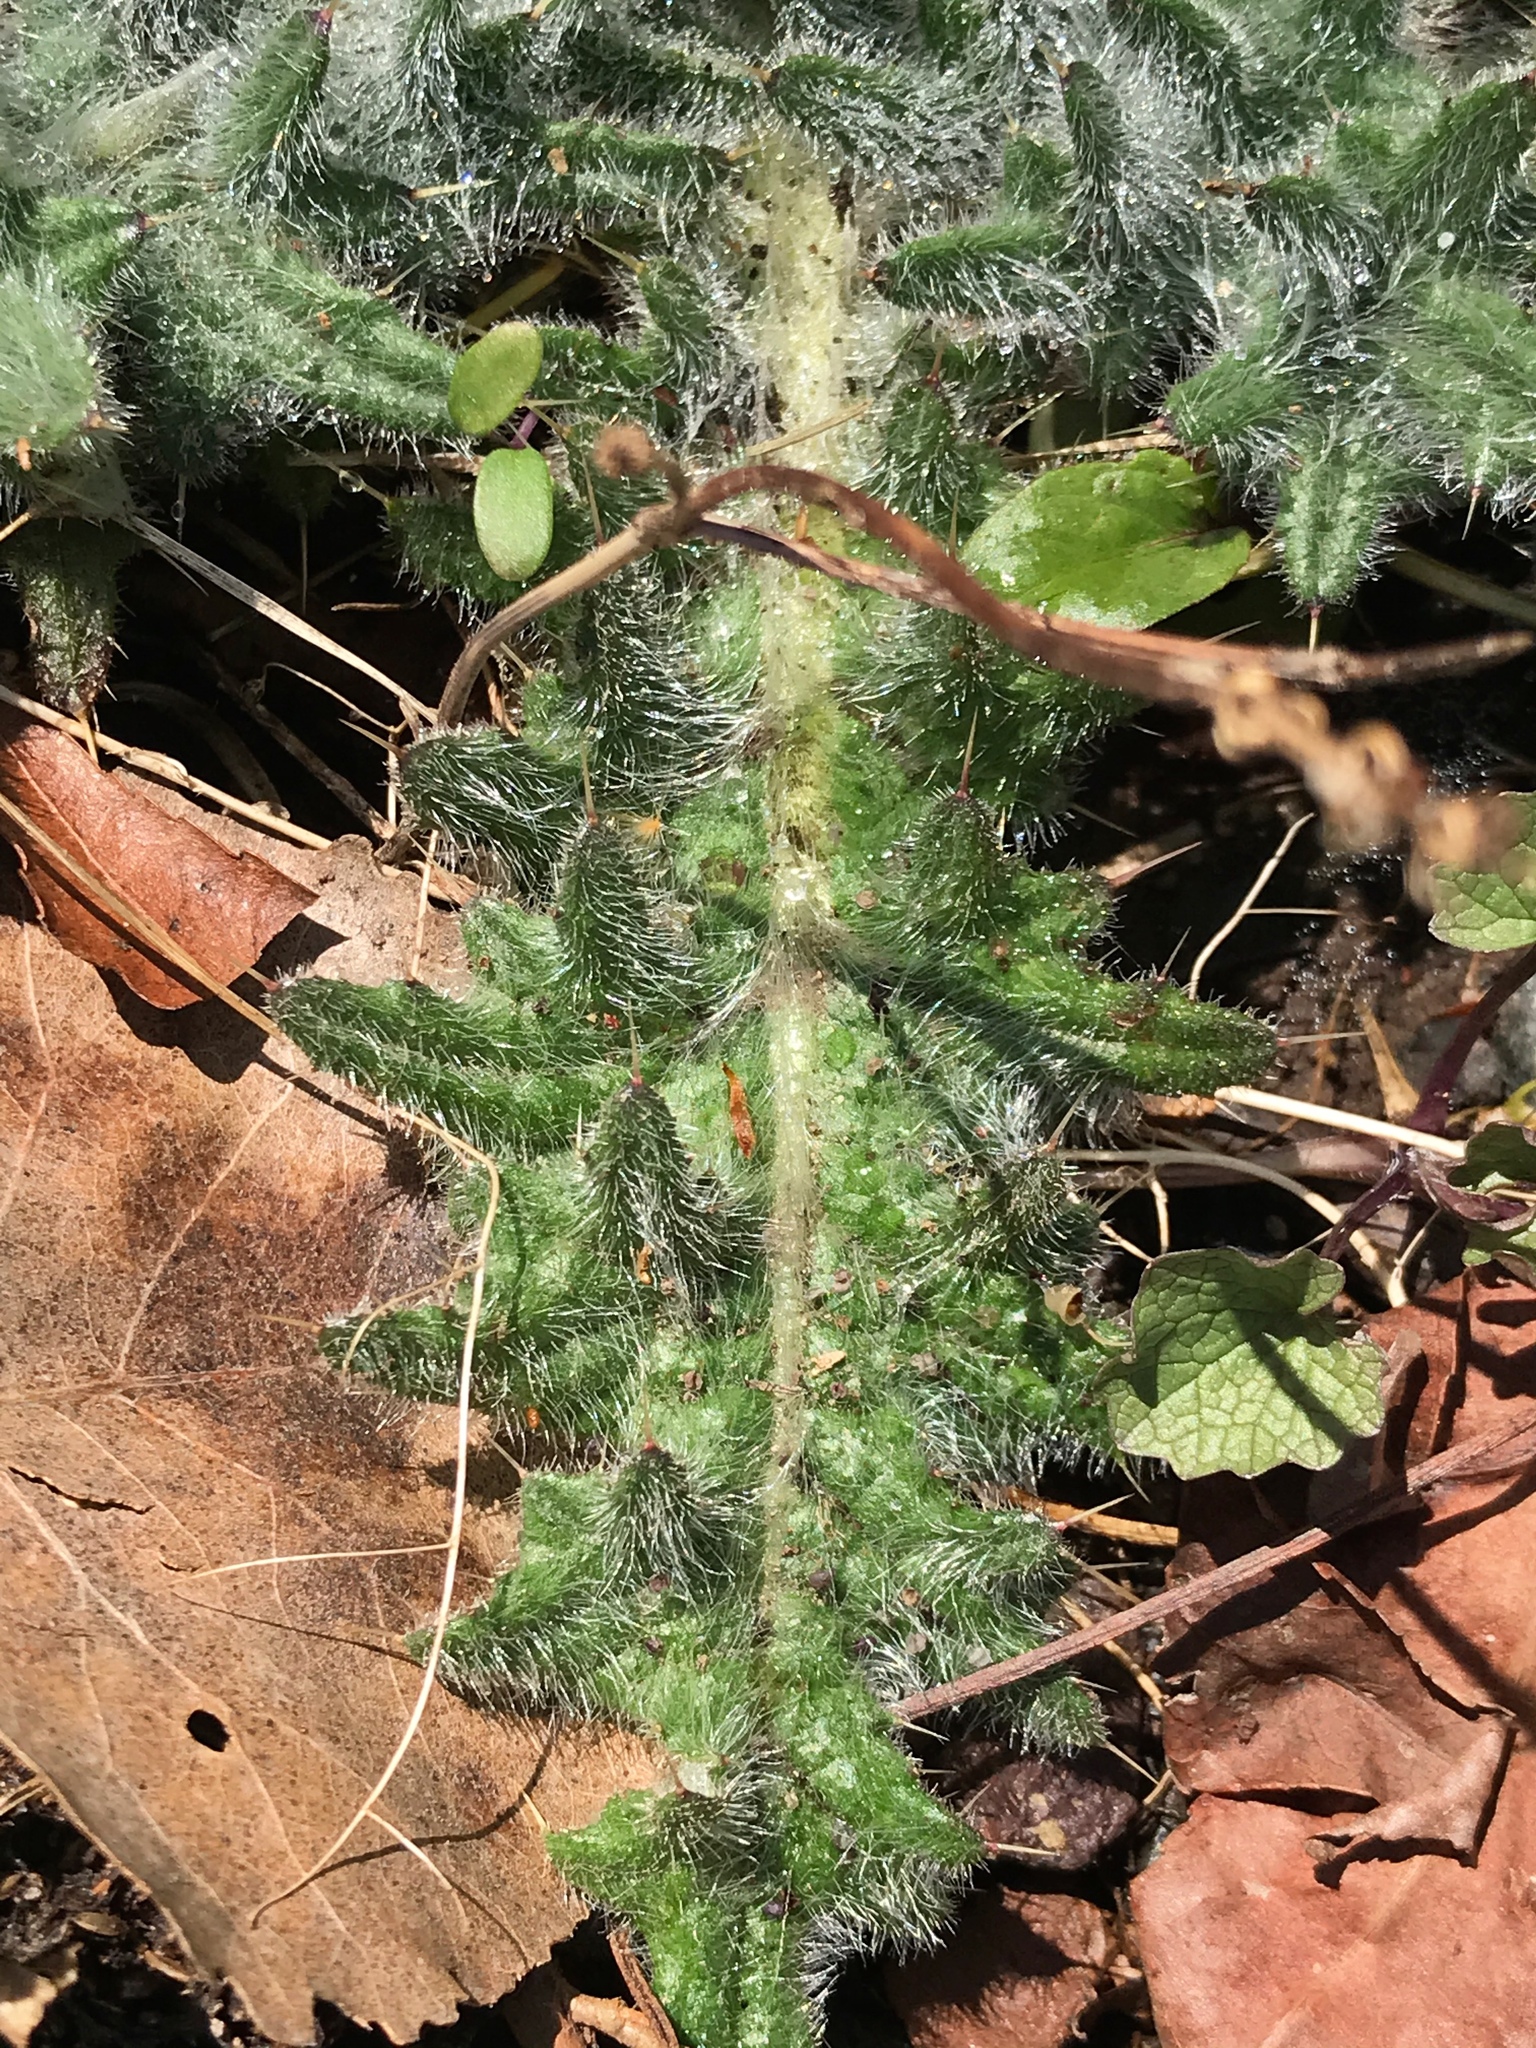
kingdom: Plantae
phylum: Tracheophyta
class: Magnoliopsida
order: Asterales
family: Asteraceae
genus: Cirsium
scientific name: Cirsium vulgare
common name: Bull thistle
